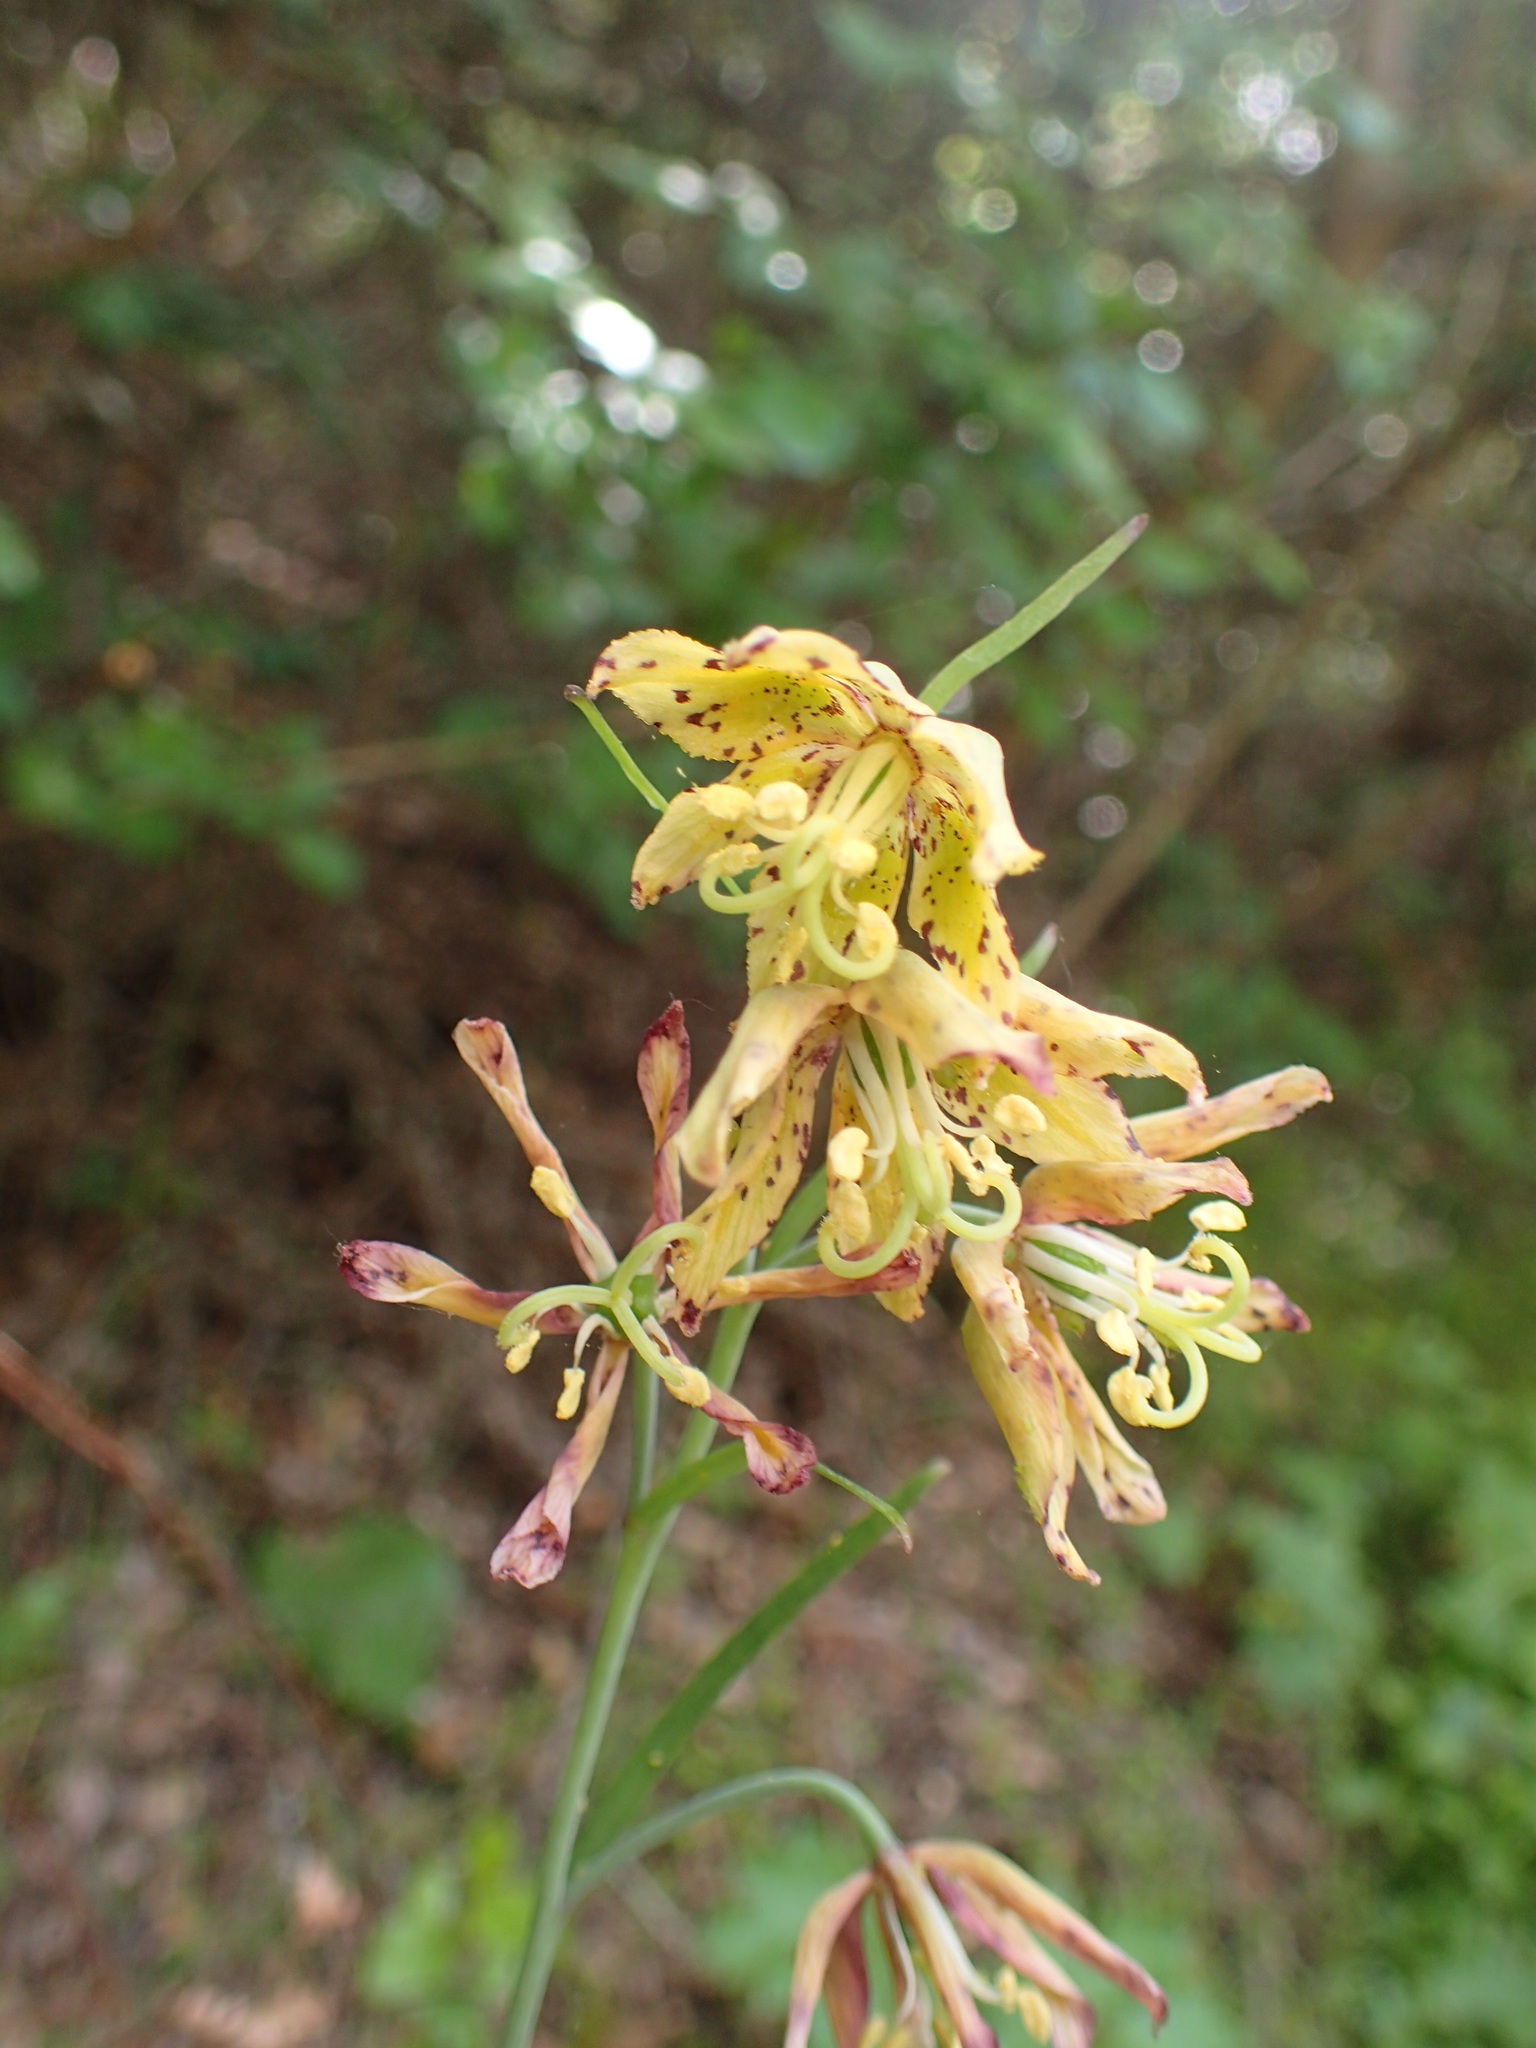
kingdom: Plantae
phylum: Tracheophyta
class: Liliopsida
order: Liliales
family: Liliaceae
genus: Fritillaria
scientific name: Fritillaria ojaiensis
